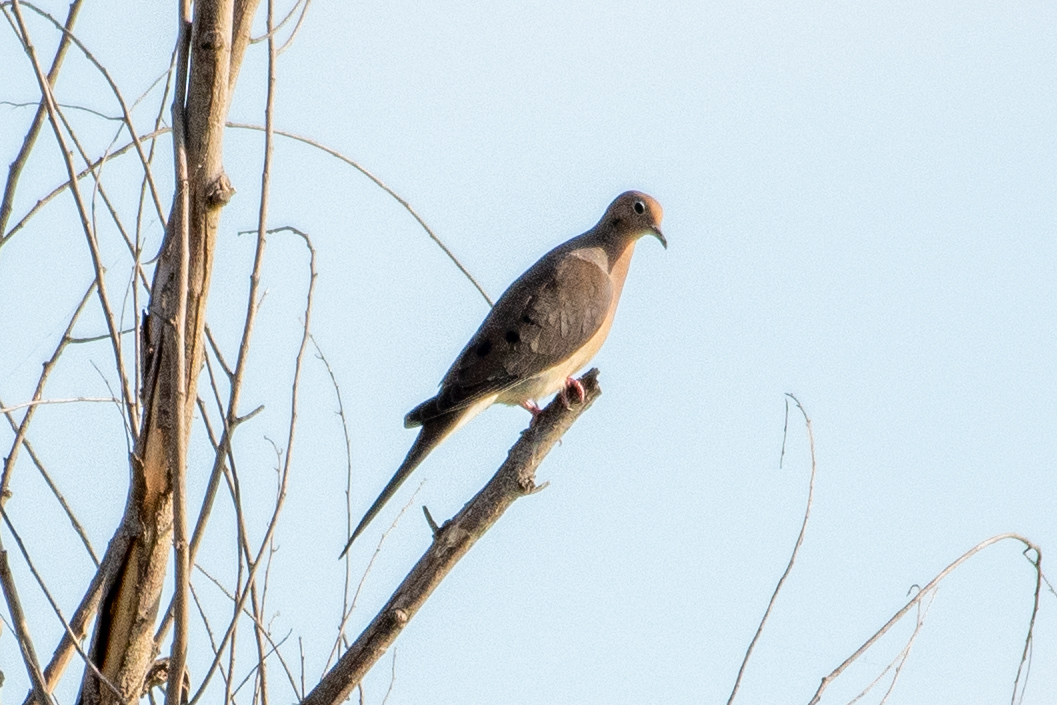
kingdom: Animalia
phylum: Chordata
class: Aves
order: Columbiformes
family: Columbidae
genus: Zenaida
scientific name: Zenaida macroura
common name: Mourning dove
